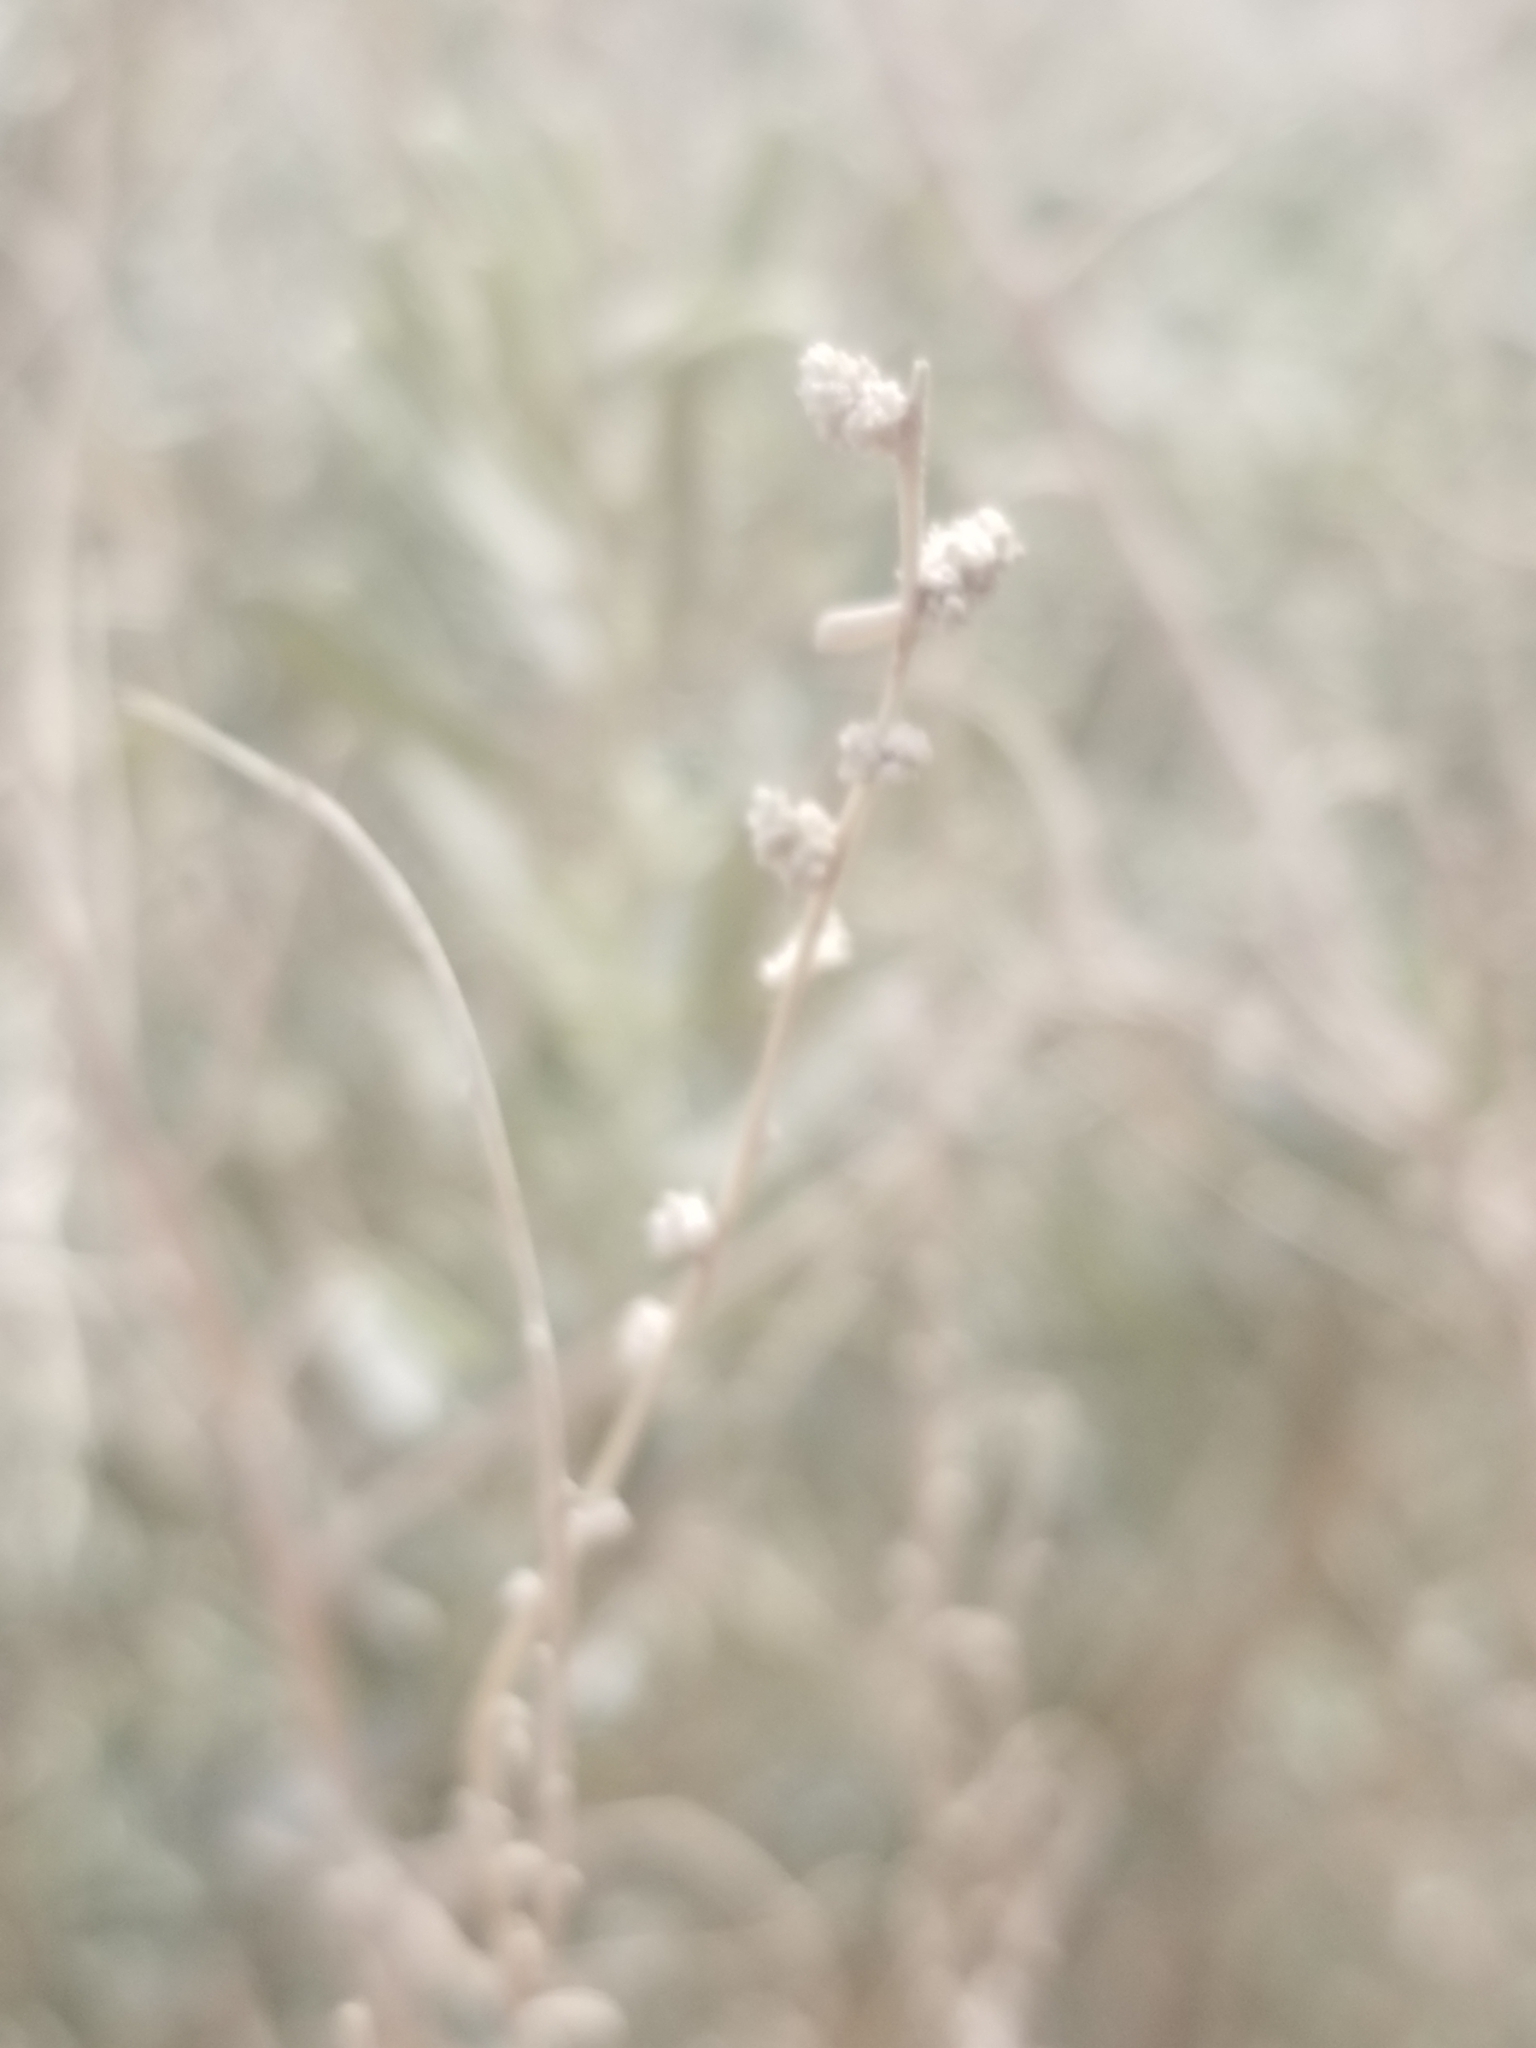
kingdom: Plantae
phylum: Tracheophyta
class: Magnoliopsida
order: Caryophyllales
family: Amaranthaceae
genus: Atriplex
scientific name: Atriplex polycarpa
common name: Desert saltbush
